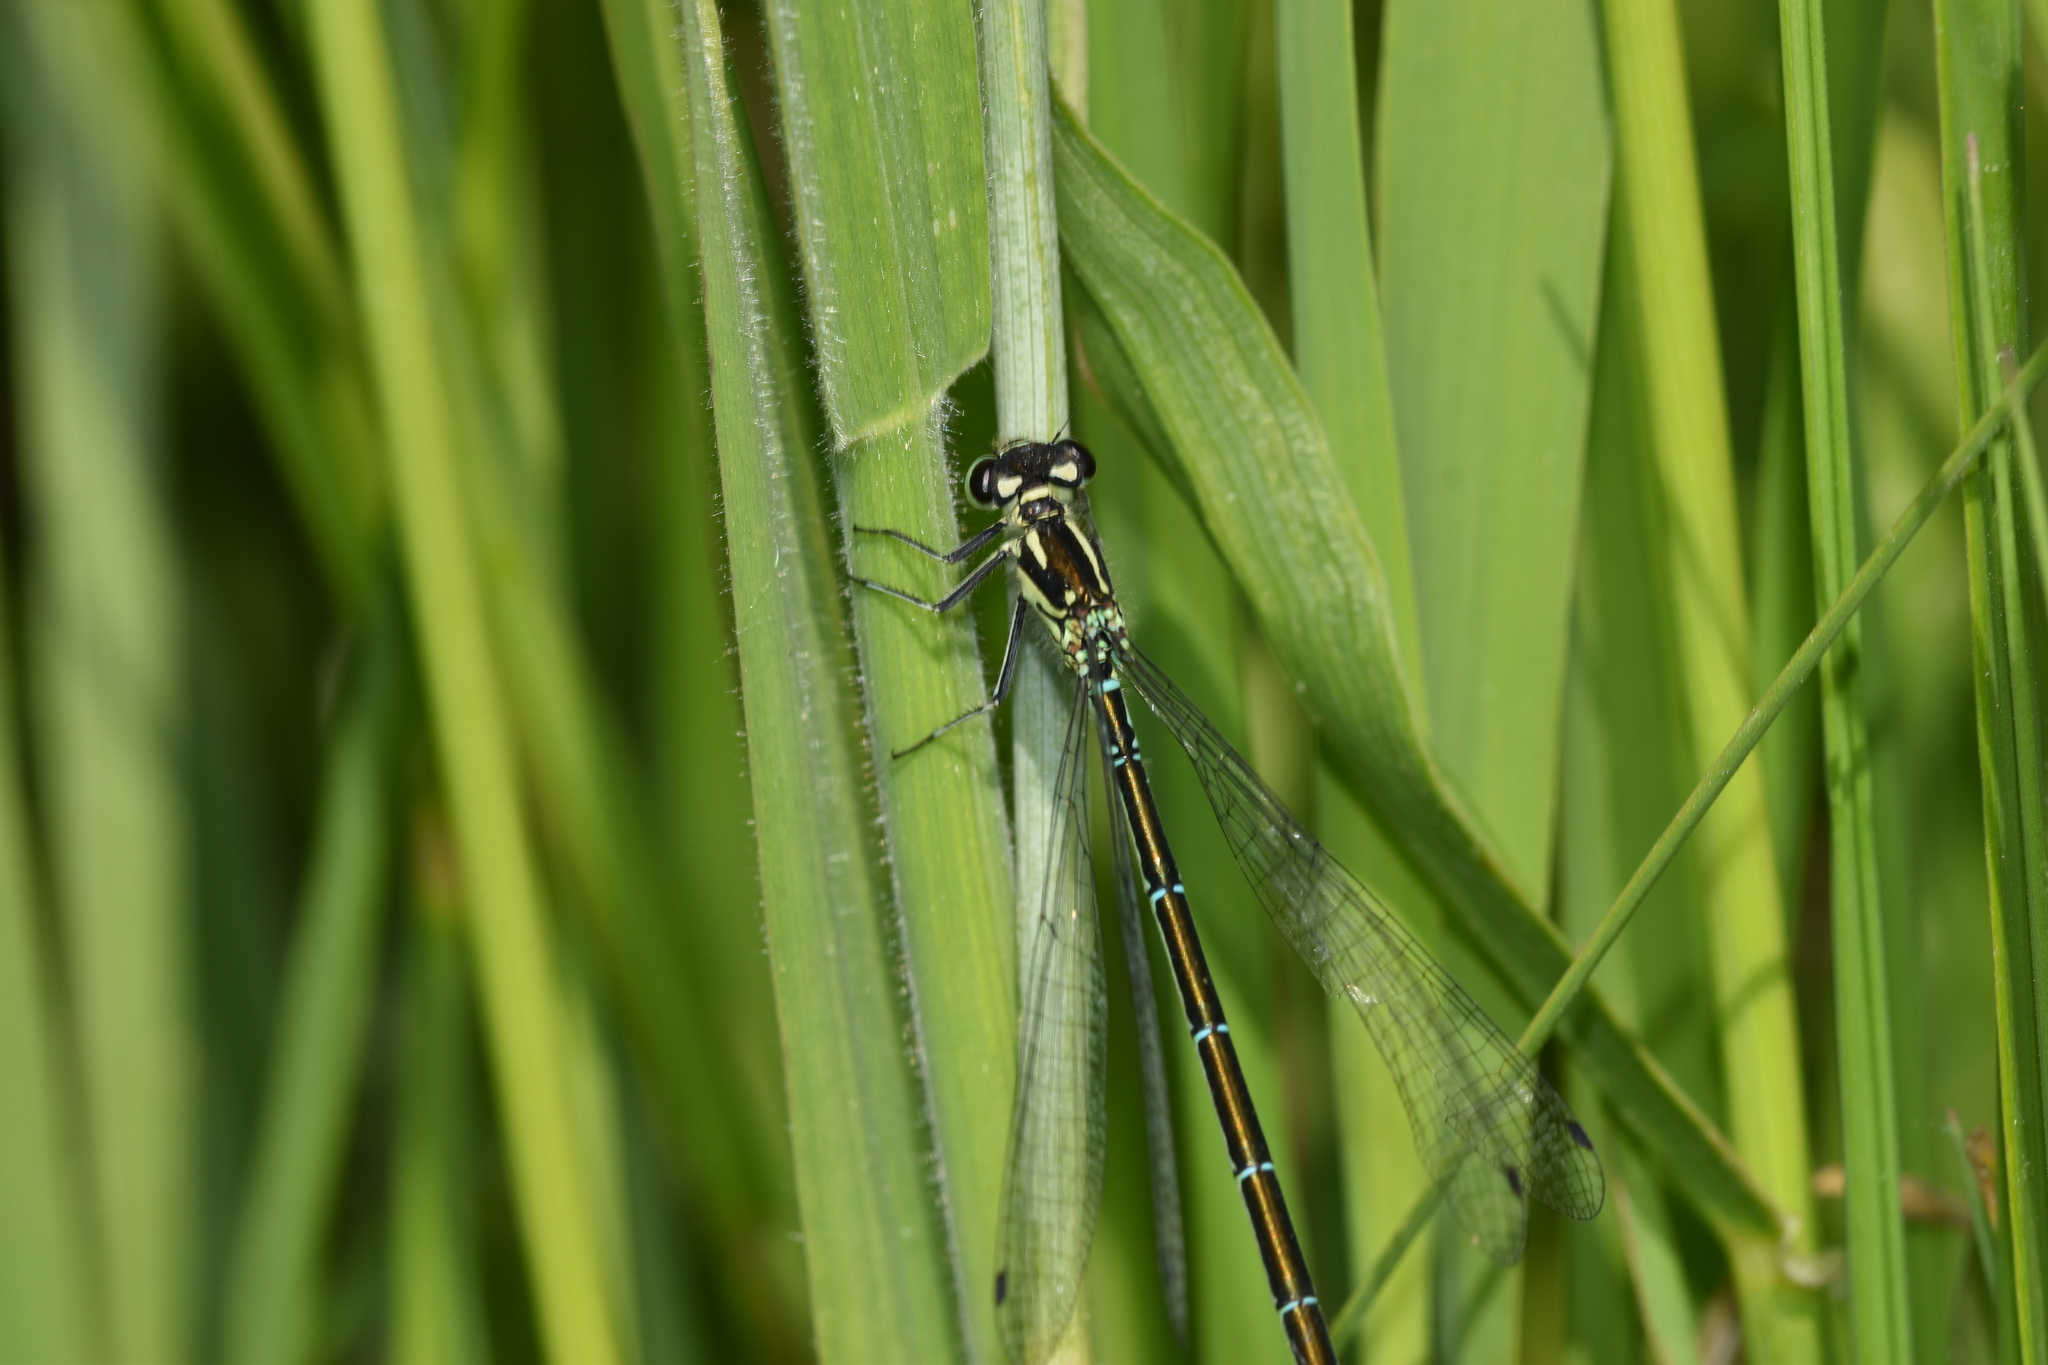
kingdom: Animalia
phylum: Arthropoda
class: Insecta
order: Odonata
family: Coenagrionidae
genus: Coenagrion
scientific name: Coenagrion puella
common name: Azure damselfly
